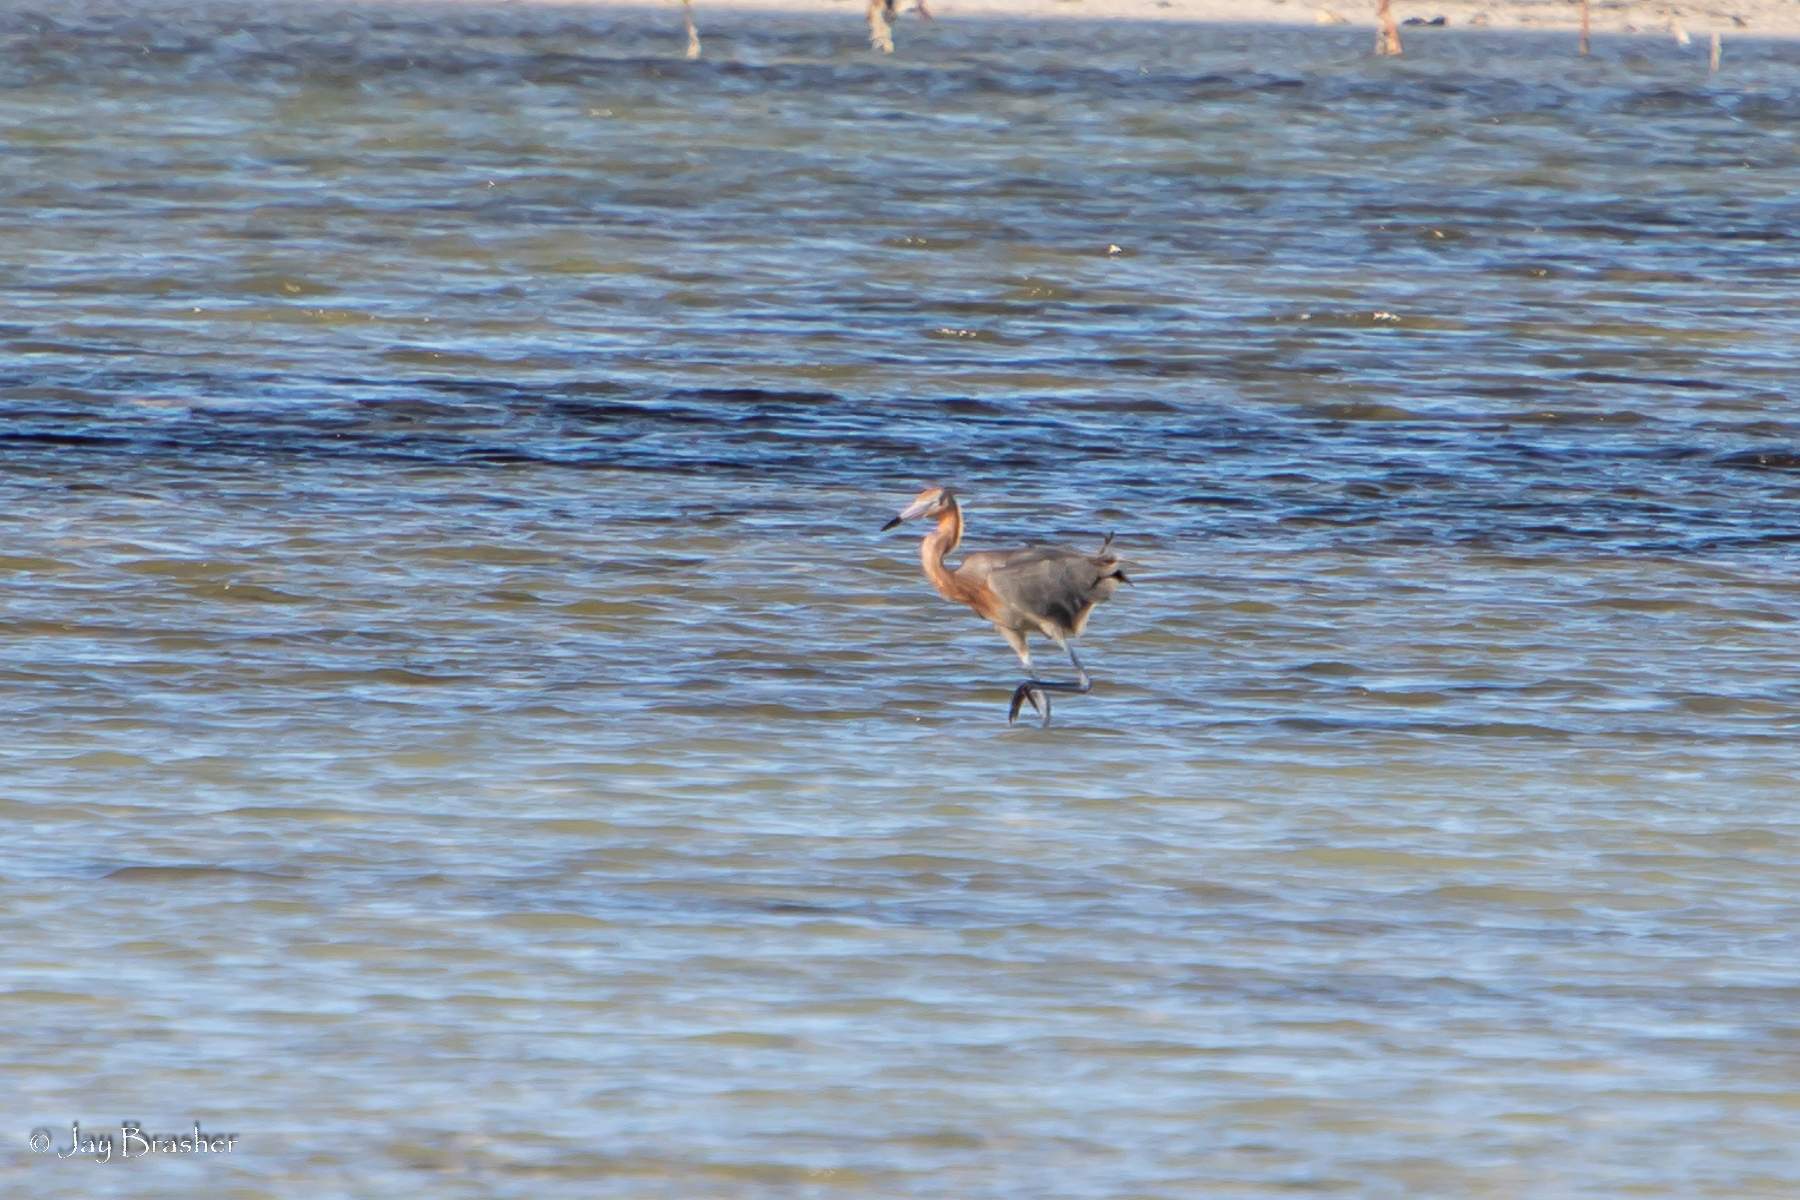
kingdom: Animalia
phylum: Chordata
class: Aves
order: Pelecaniformes
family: Ardeidae
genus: Egretta
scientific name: Egretta rufescens
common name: Reddish egret
